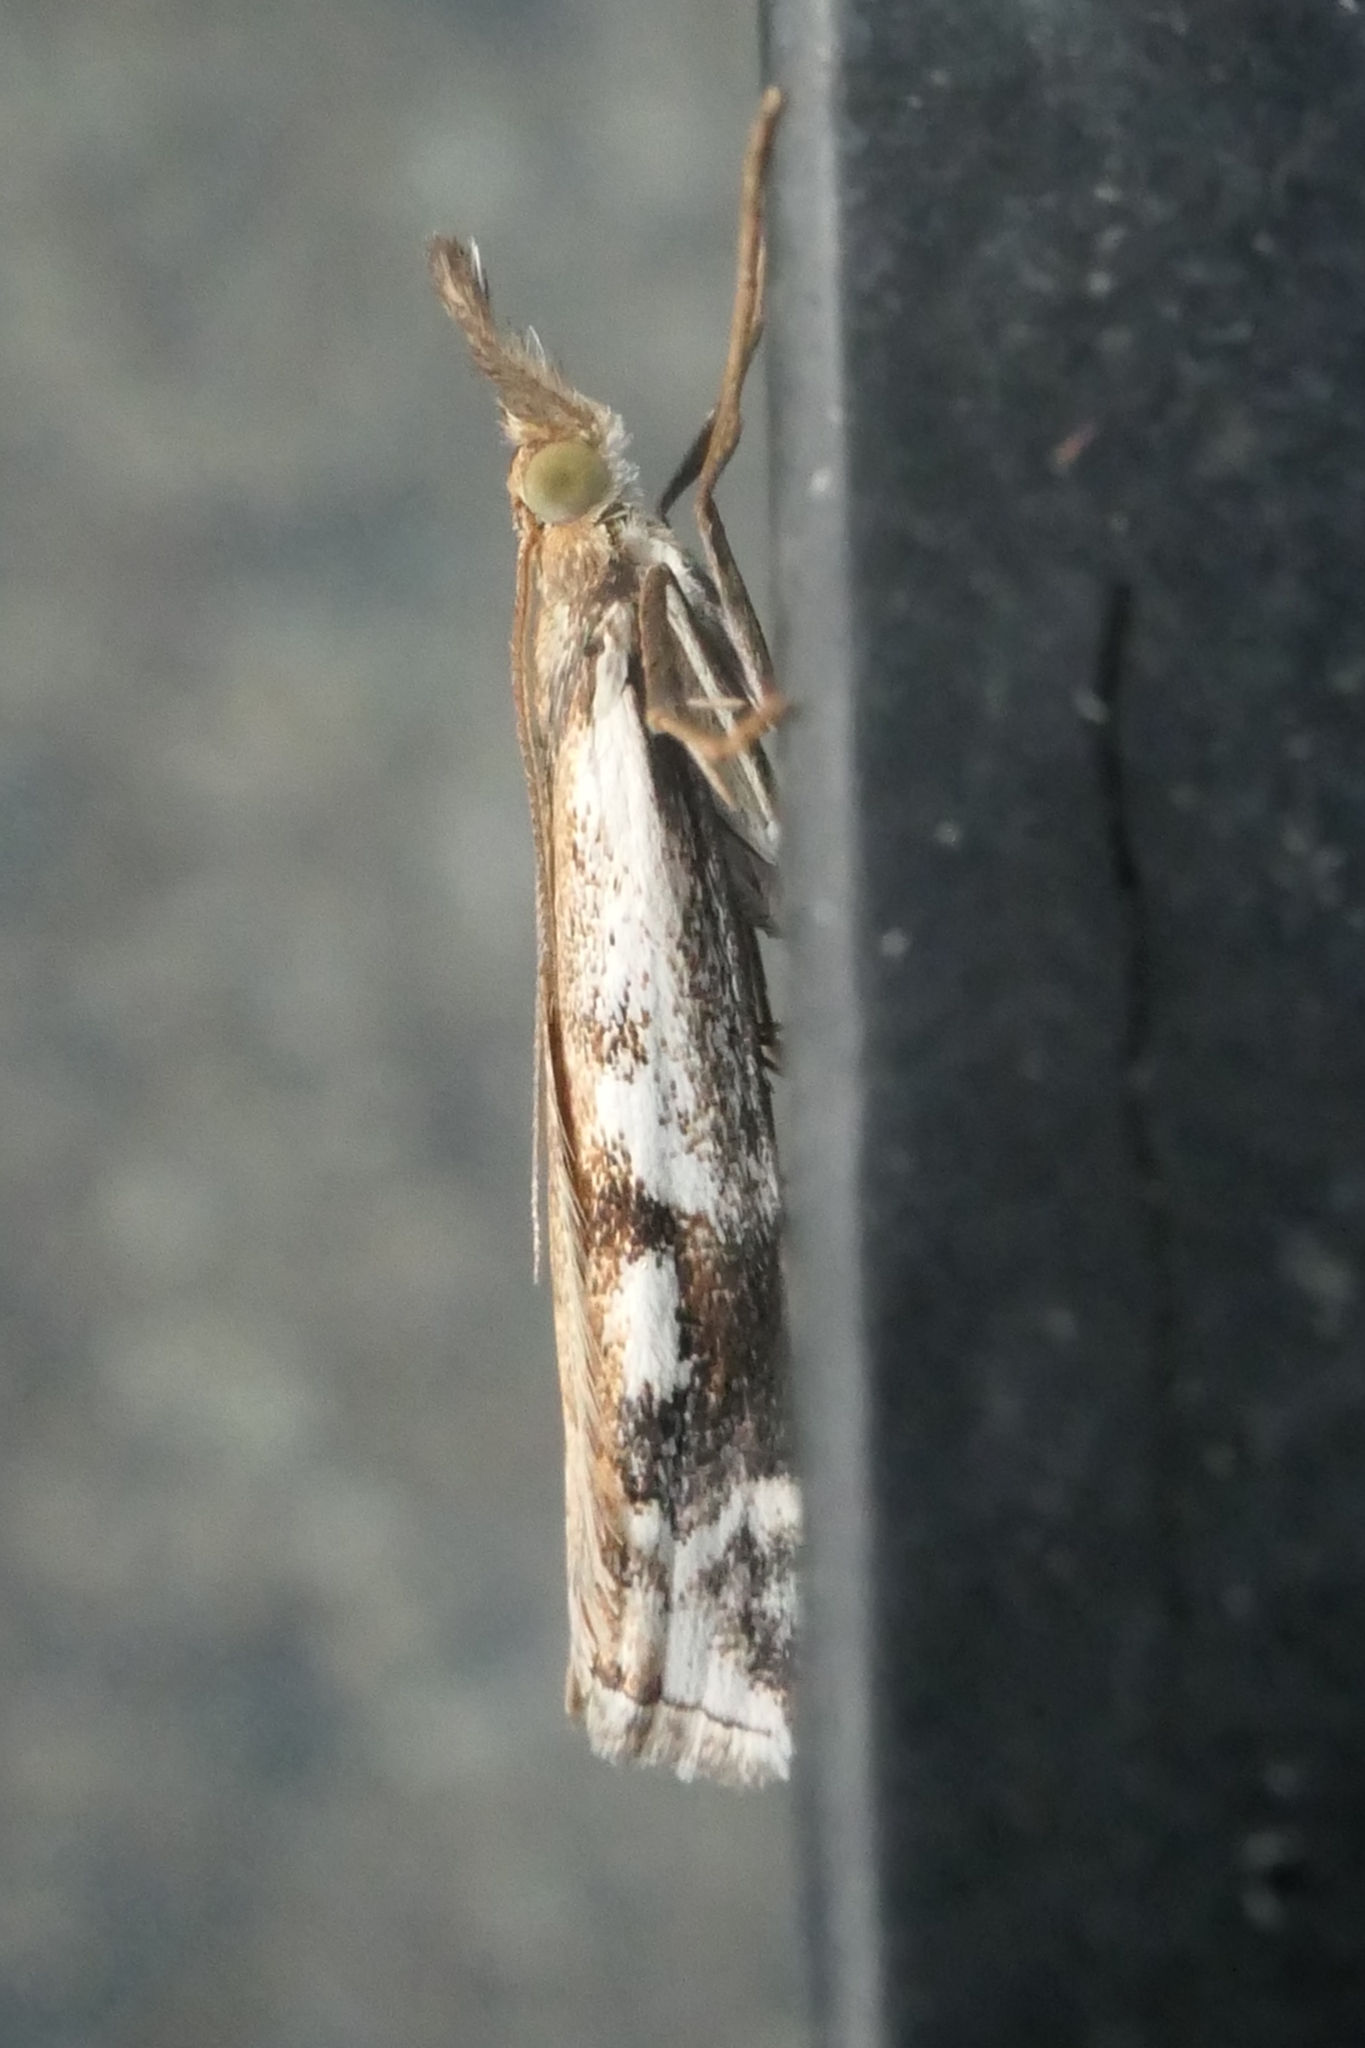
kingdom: Animalia
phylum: Arthropoda
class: Insecta
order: Lepidoptera
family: Crambidae
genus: Orocrambus
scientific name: Orocrambus vulgaris
